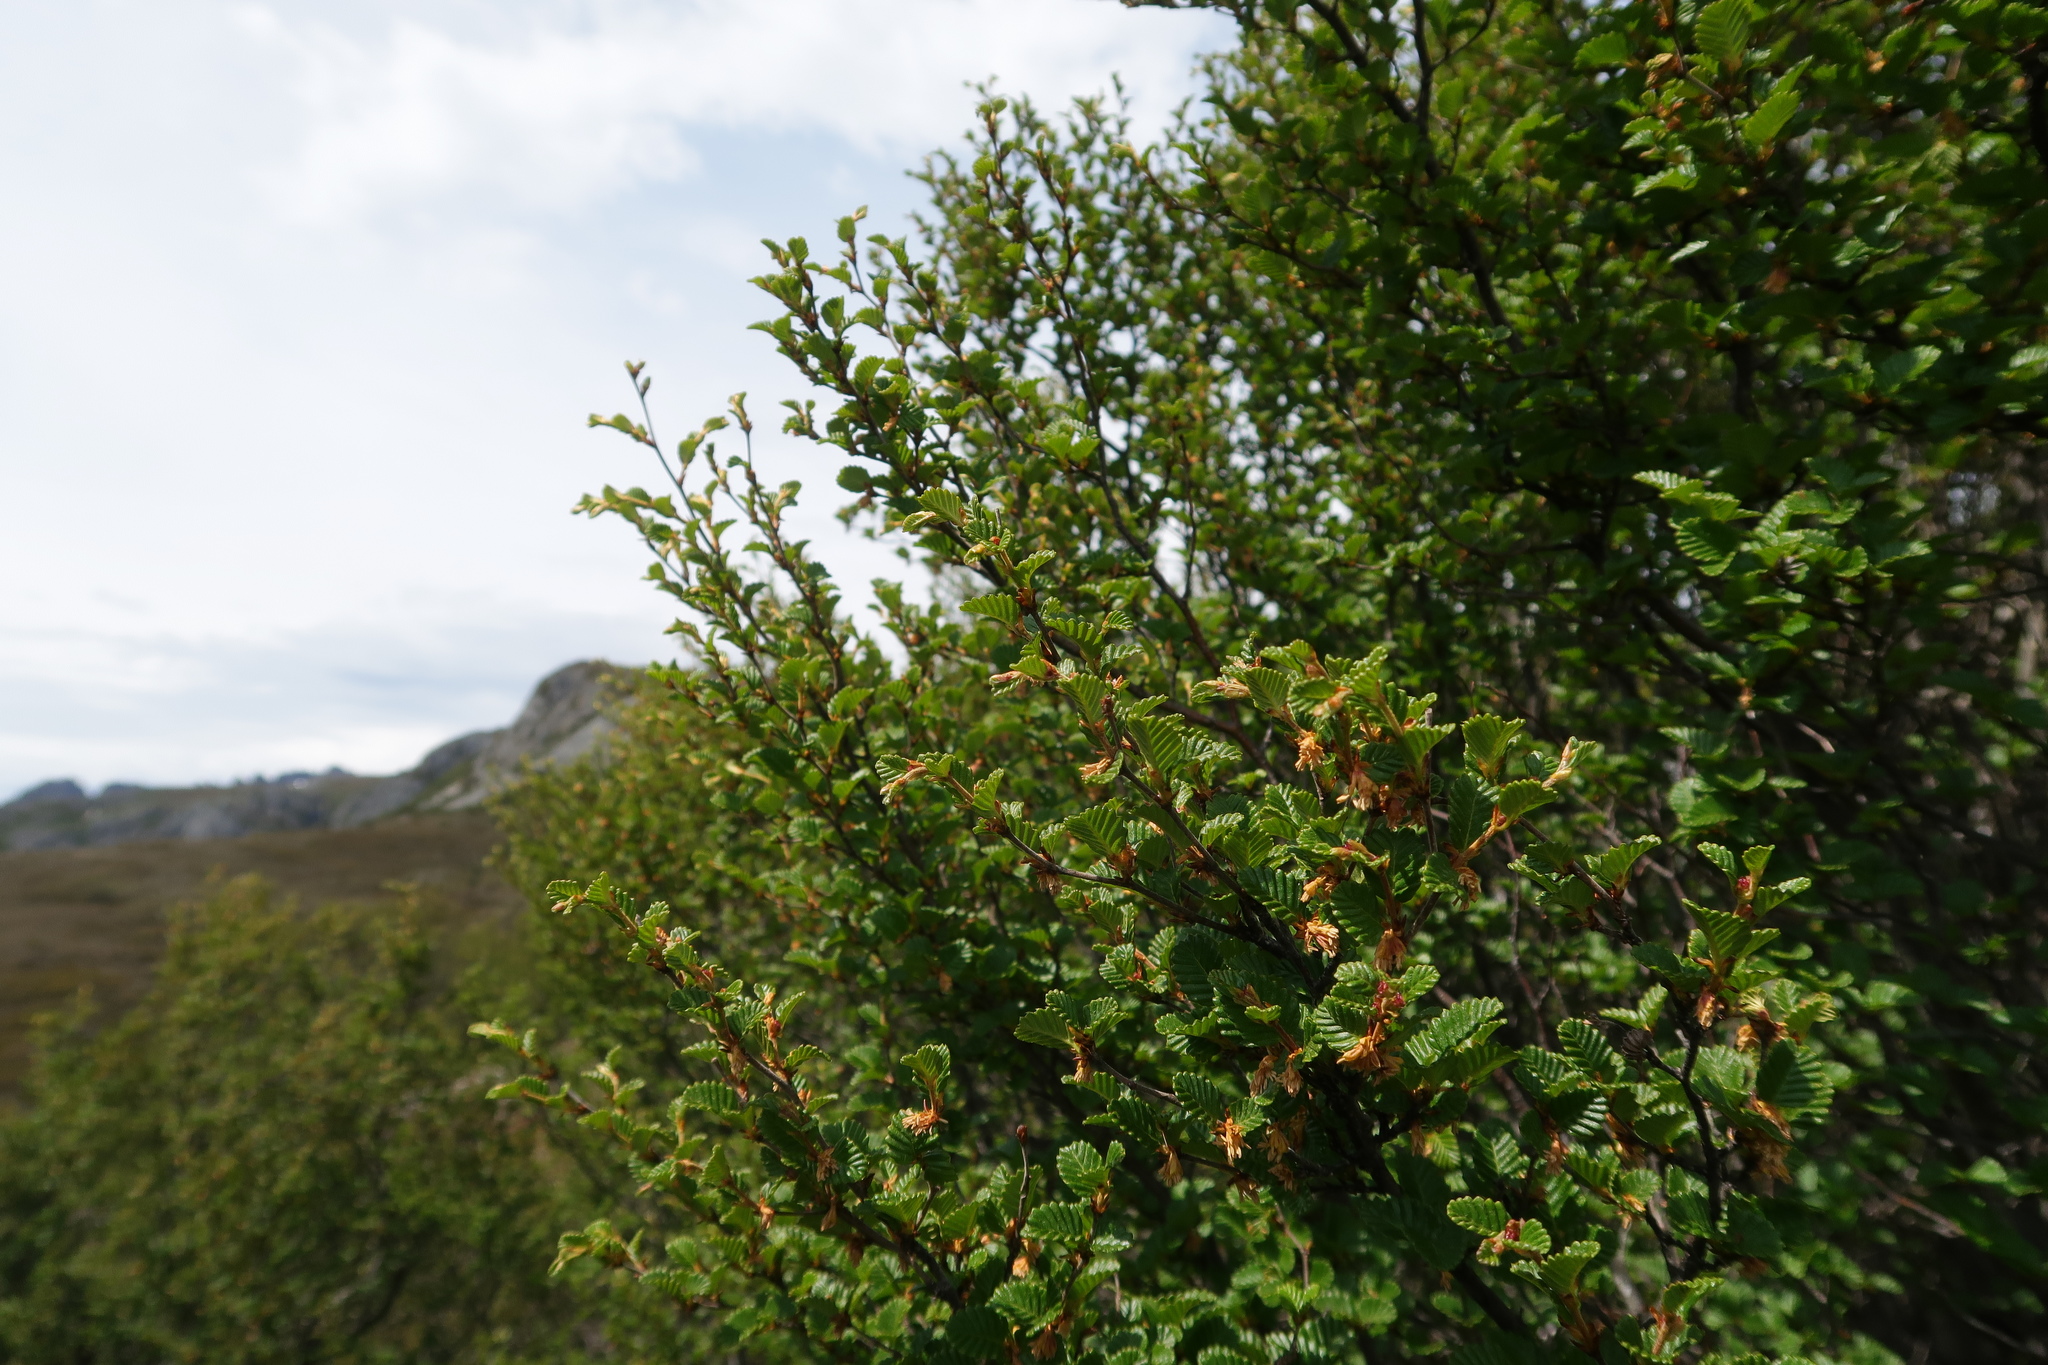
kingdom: Plantae
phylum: Tracheophyta
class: Magnoliopsida
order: Fagales
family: Nothofagaceae
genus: Nothofagus
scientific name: Nothofagus gunnii
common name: Tanglefoot
